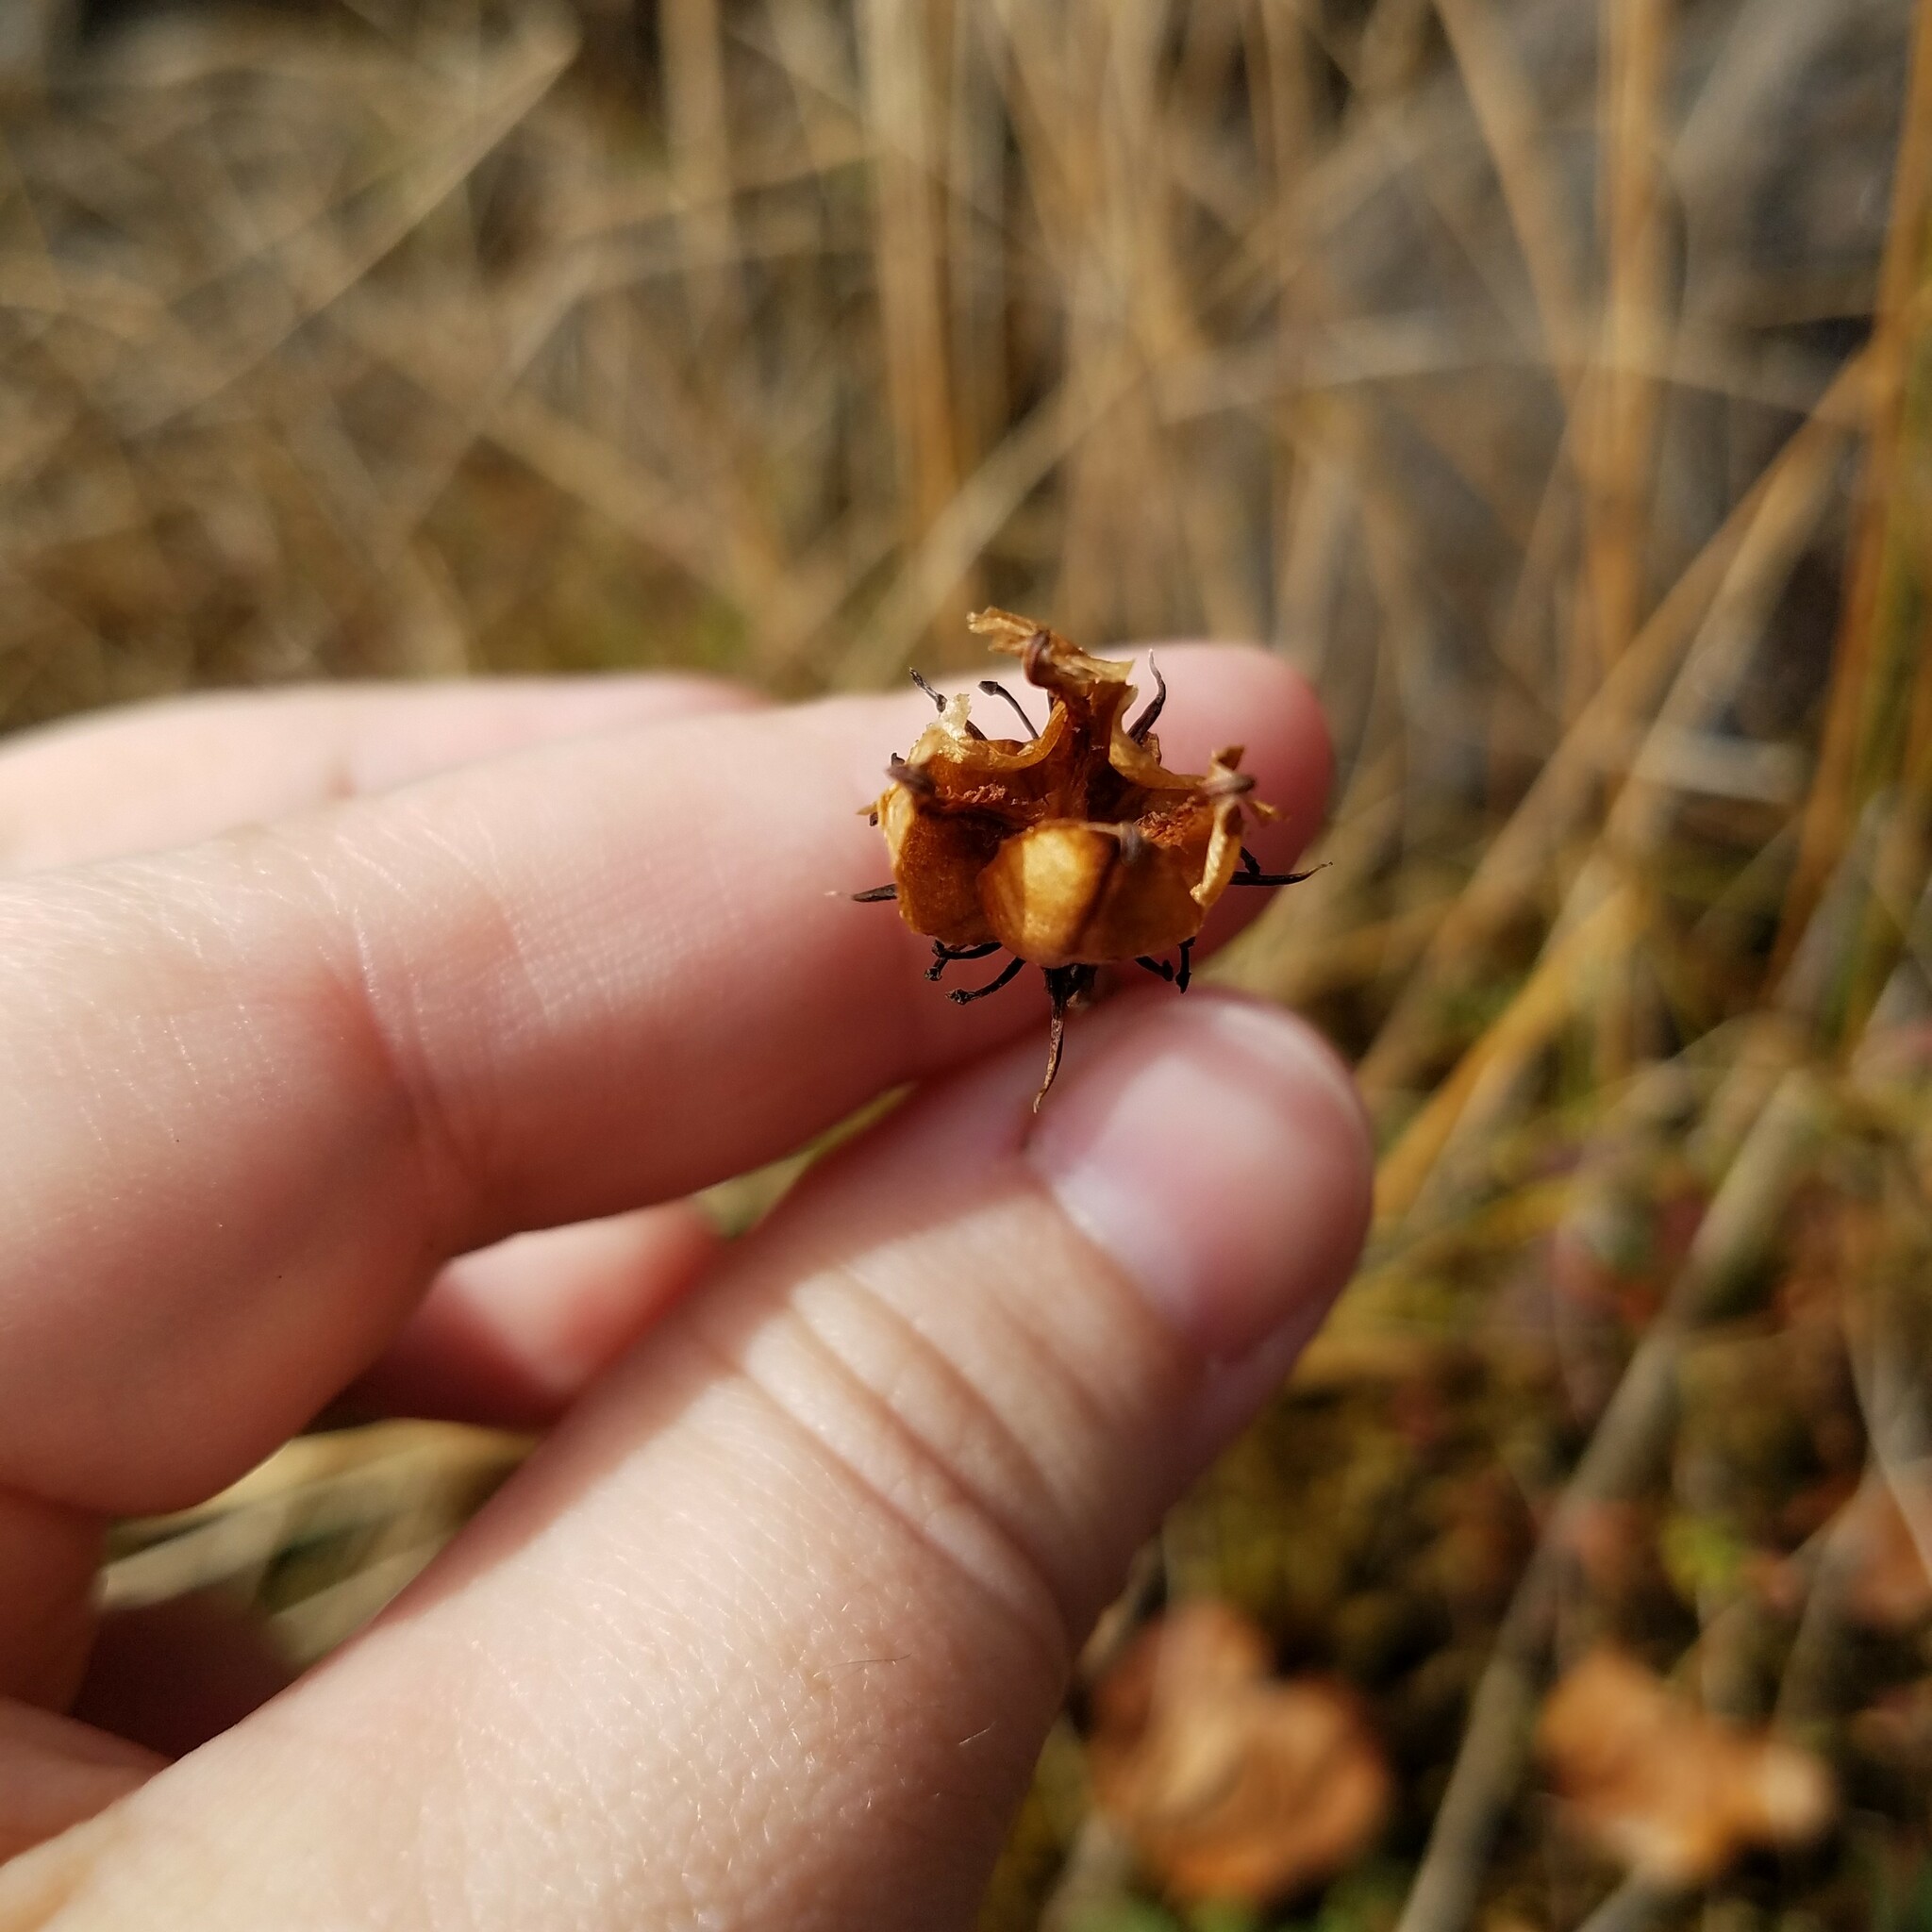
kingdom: Plantae
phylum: Tracheophyta
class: Magnoliopsida
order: Celastrales
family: Parnassiaceae
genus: Parnassia
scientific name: Parnassia asarifolia
